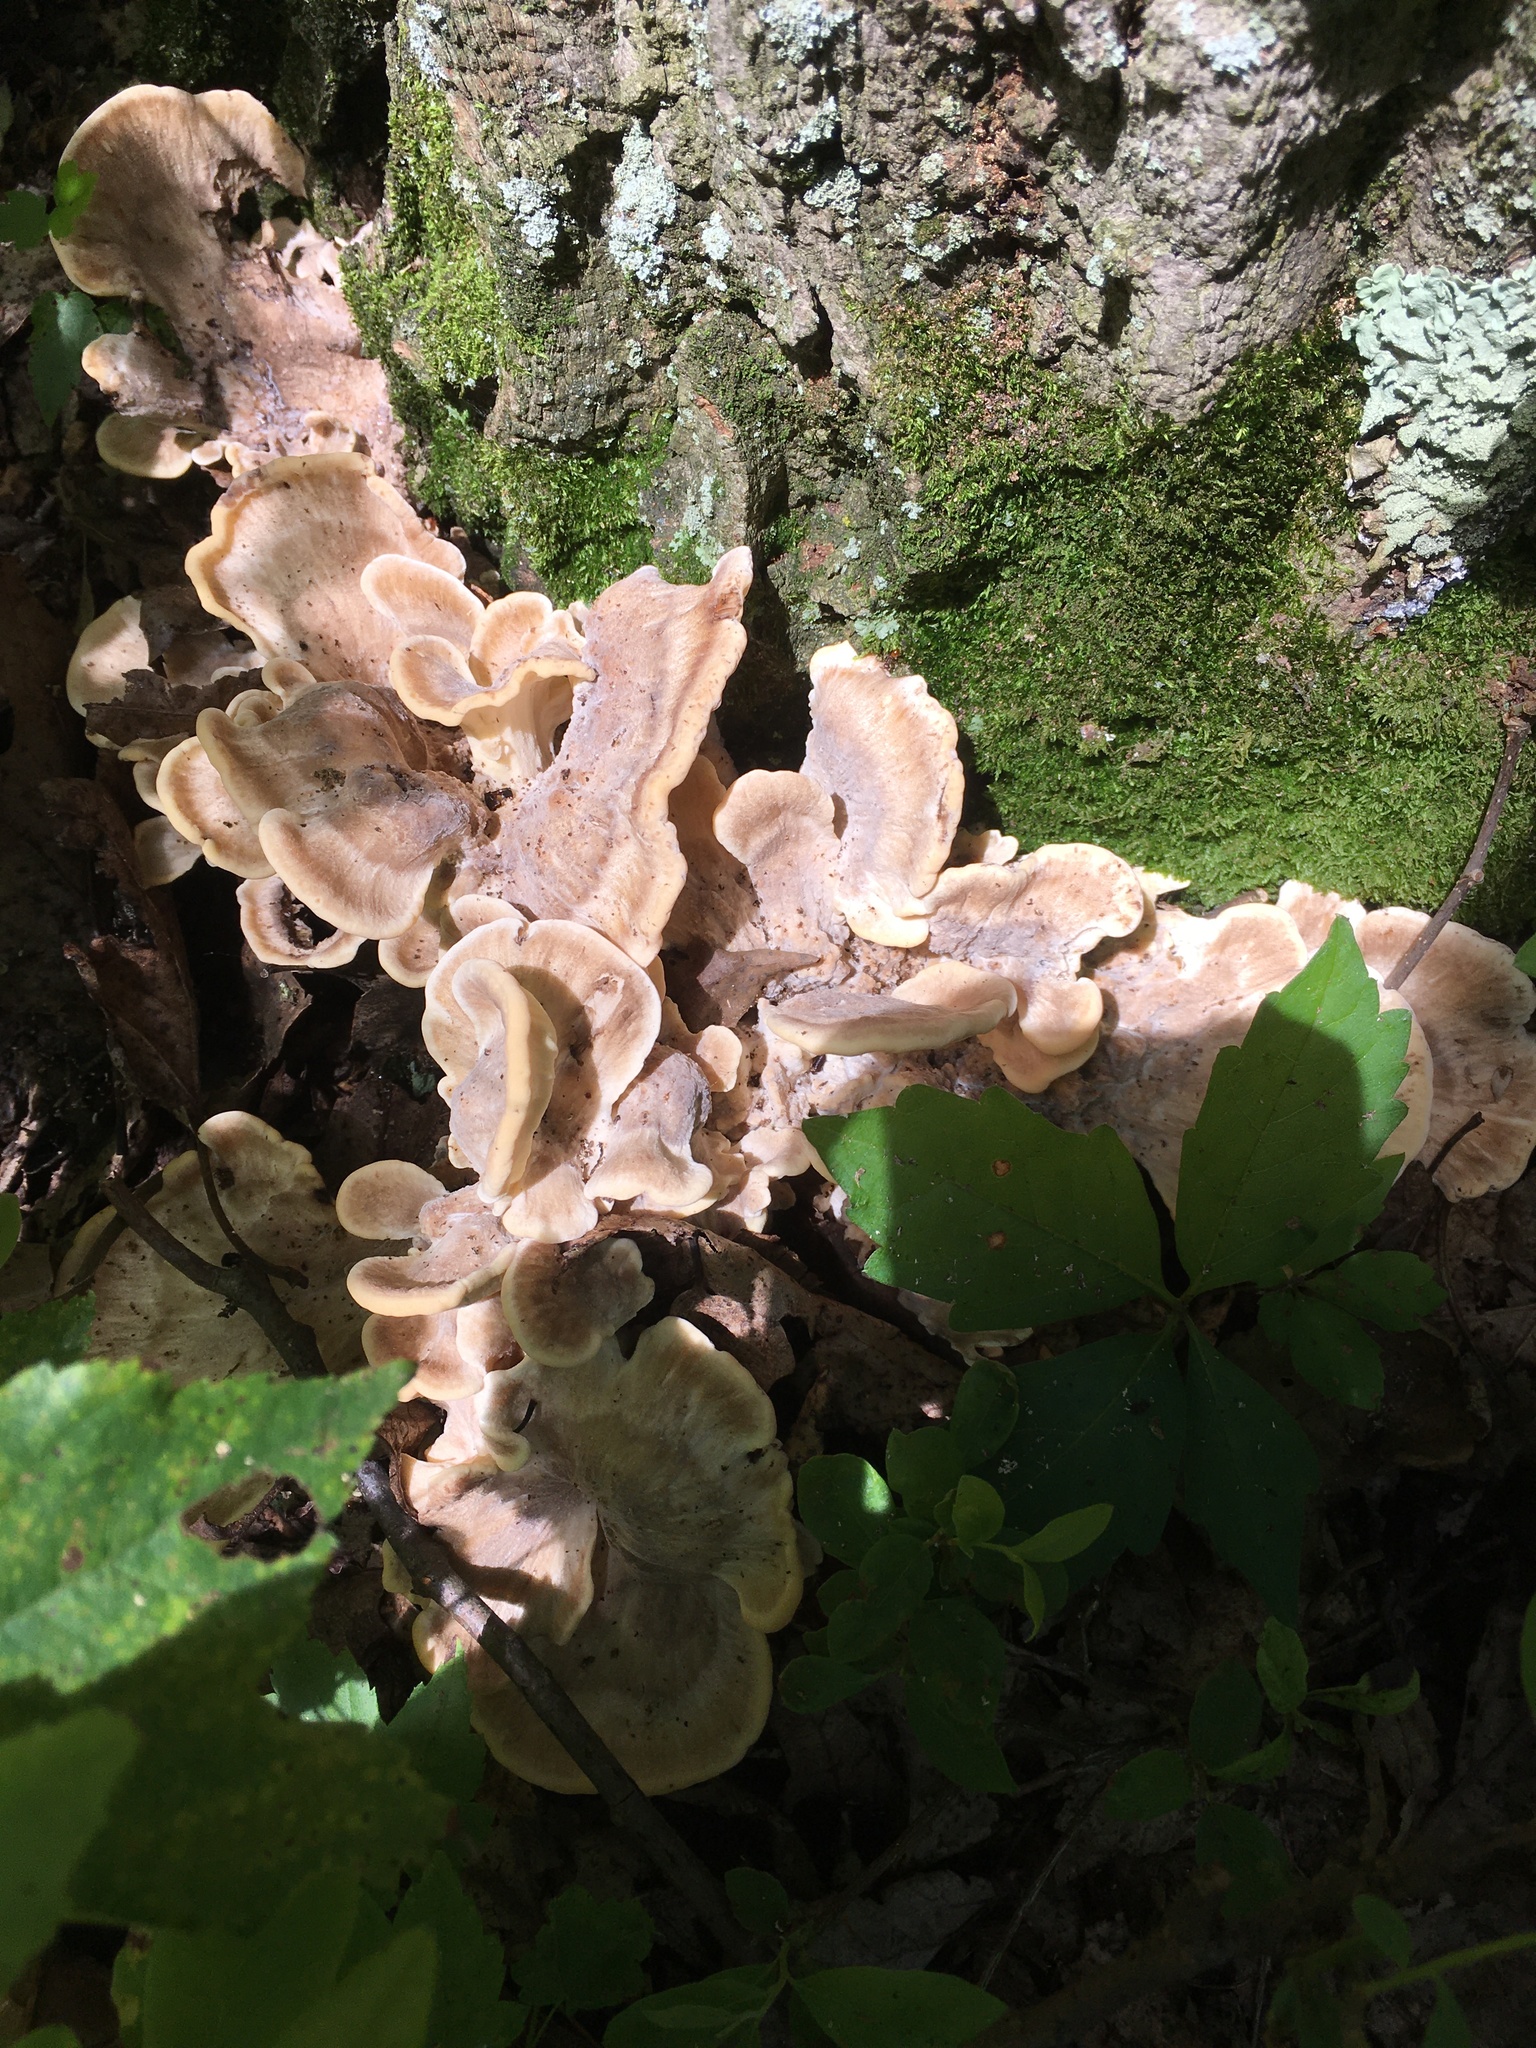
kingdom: Fungi
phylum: Basidiomycota
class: Agaricomycetes
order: Polyporales
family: Meripilaceae
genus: Meripilus
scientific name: Meripilus sumstinei
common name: Black-staining polypore
